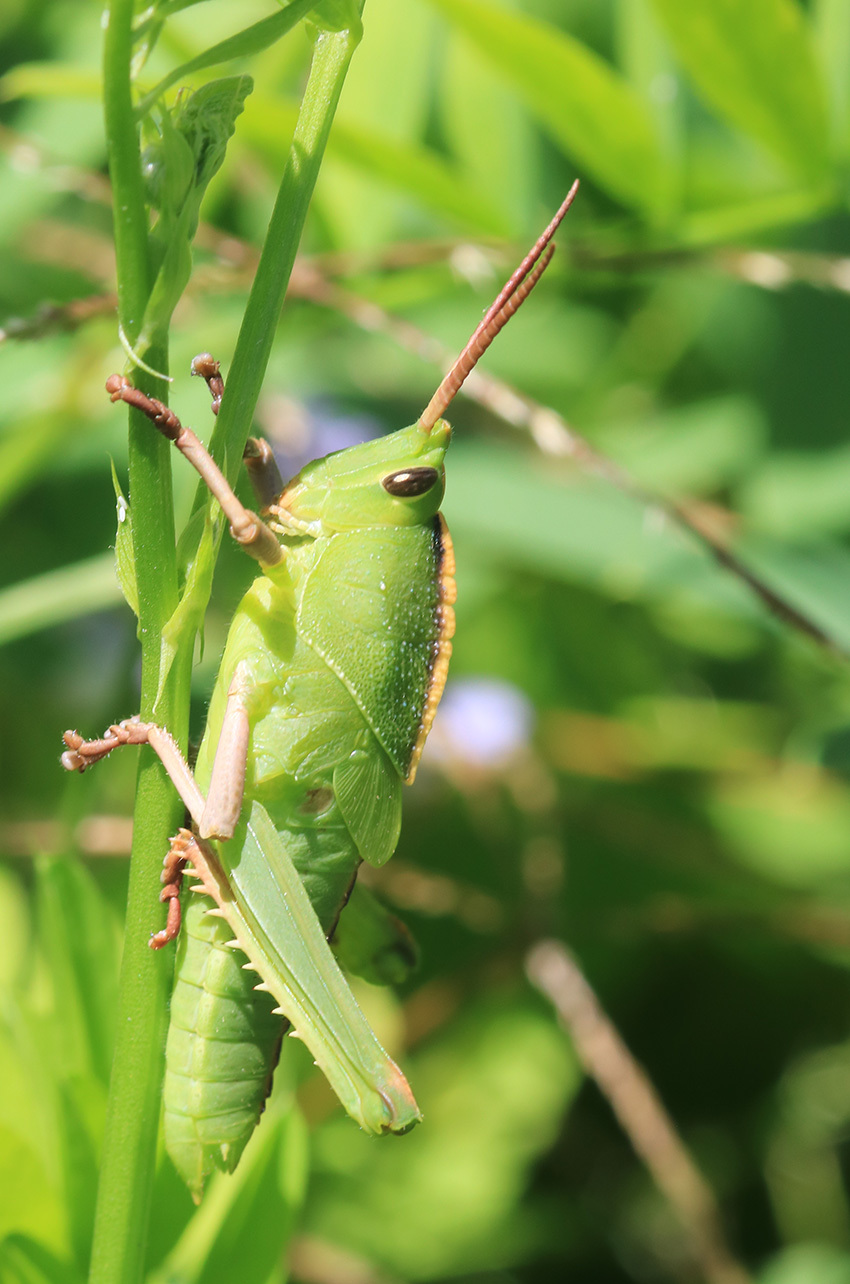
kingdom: Animalia
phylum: Arthropoda
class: Insecta
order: Orthoptera
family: Romaleidae
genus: Staleochlora
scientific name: Staleochlora viridicata
